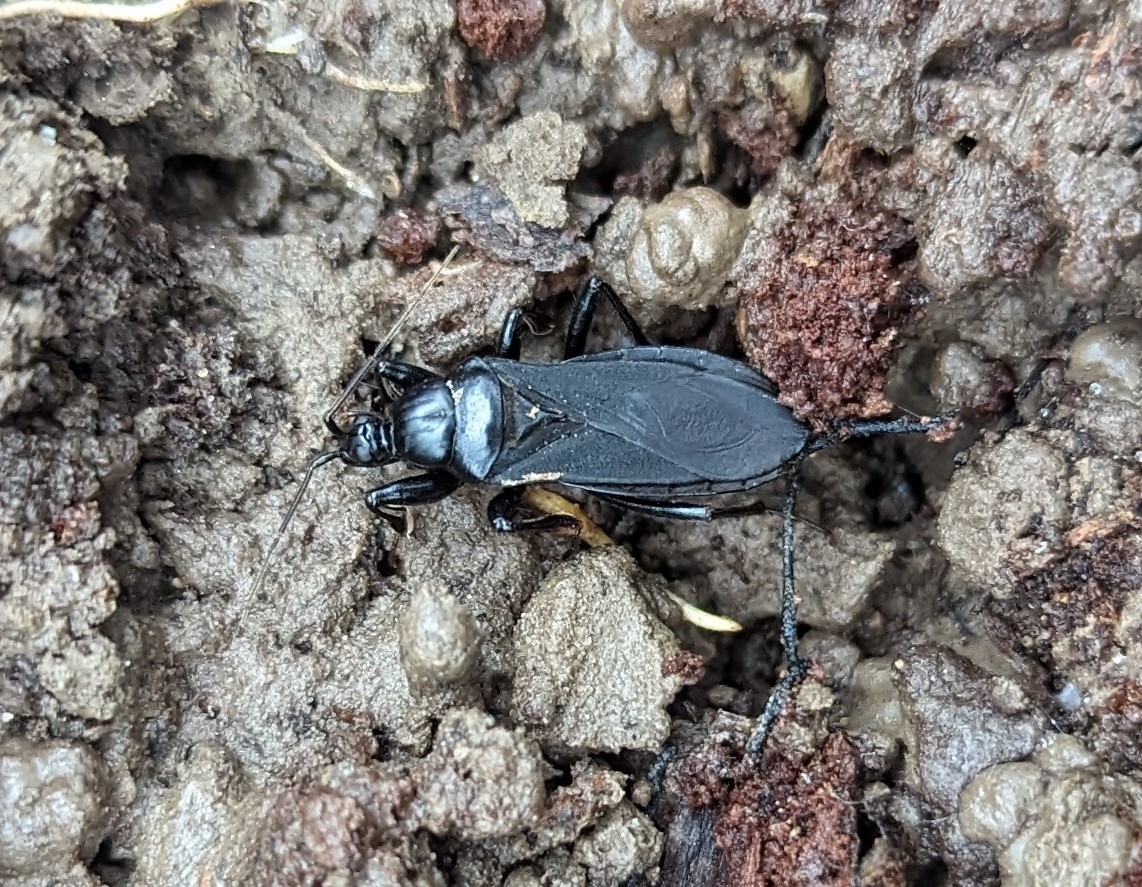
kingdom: Animalia
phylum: Arthropoda
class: Insecta
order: Hemiptera
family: Reduviidae
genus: Melanolestes
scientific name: Melanolestes picipes
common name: Assassin bug
